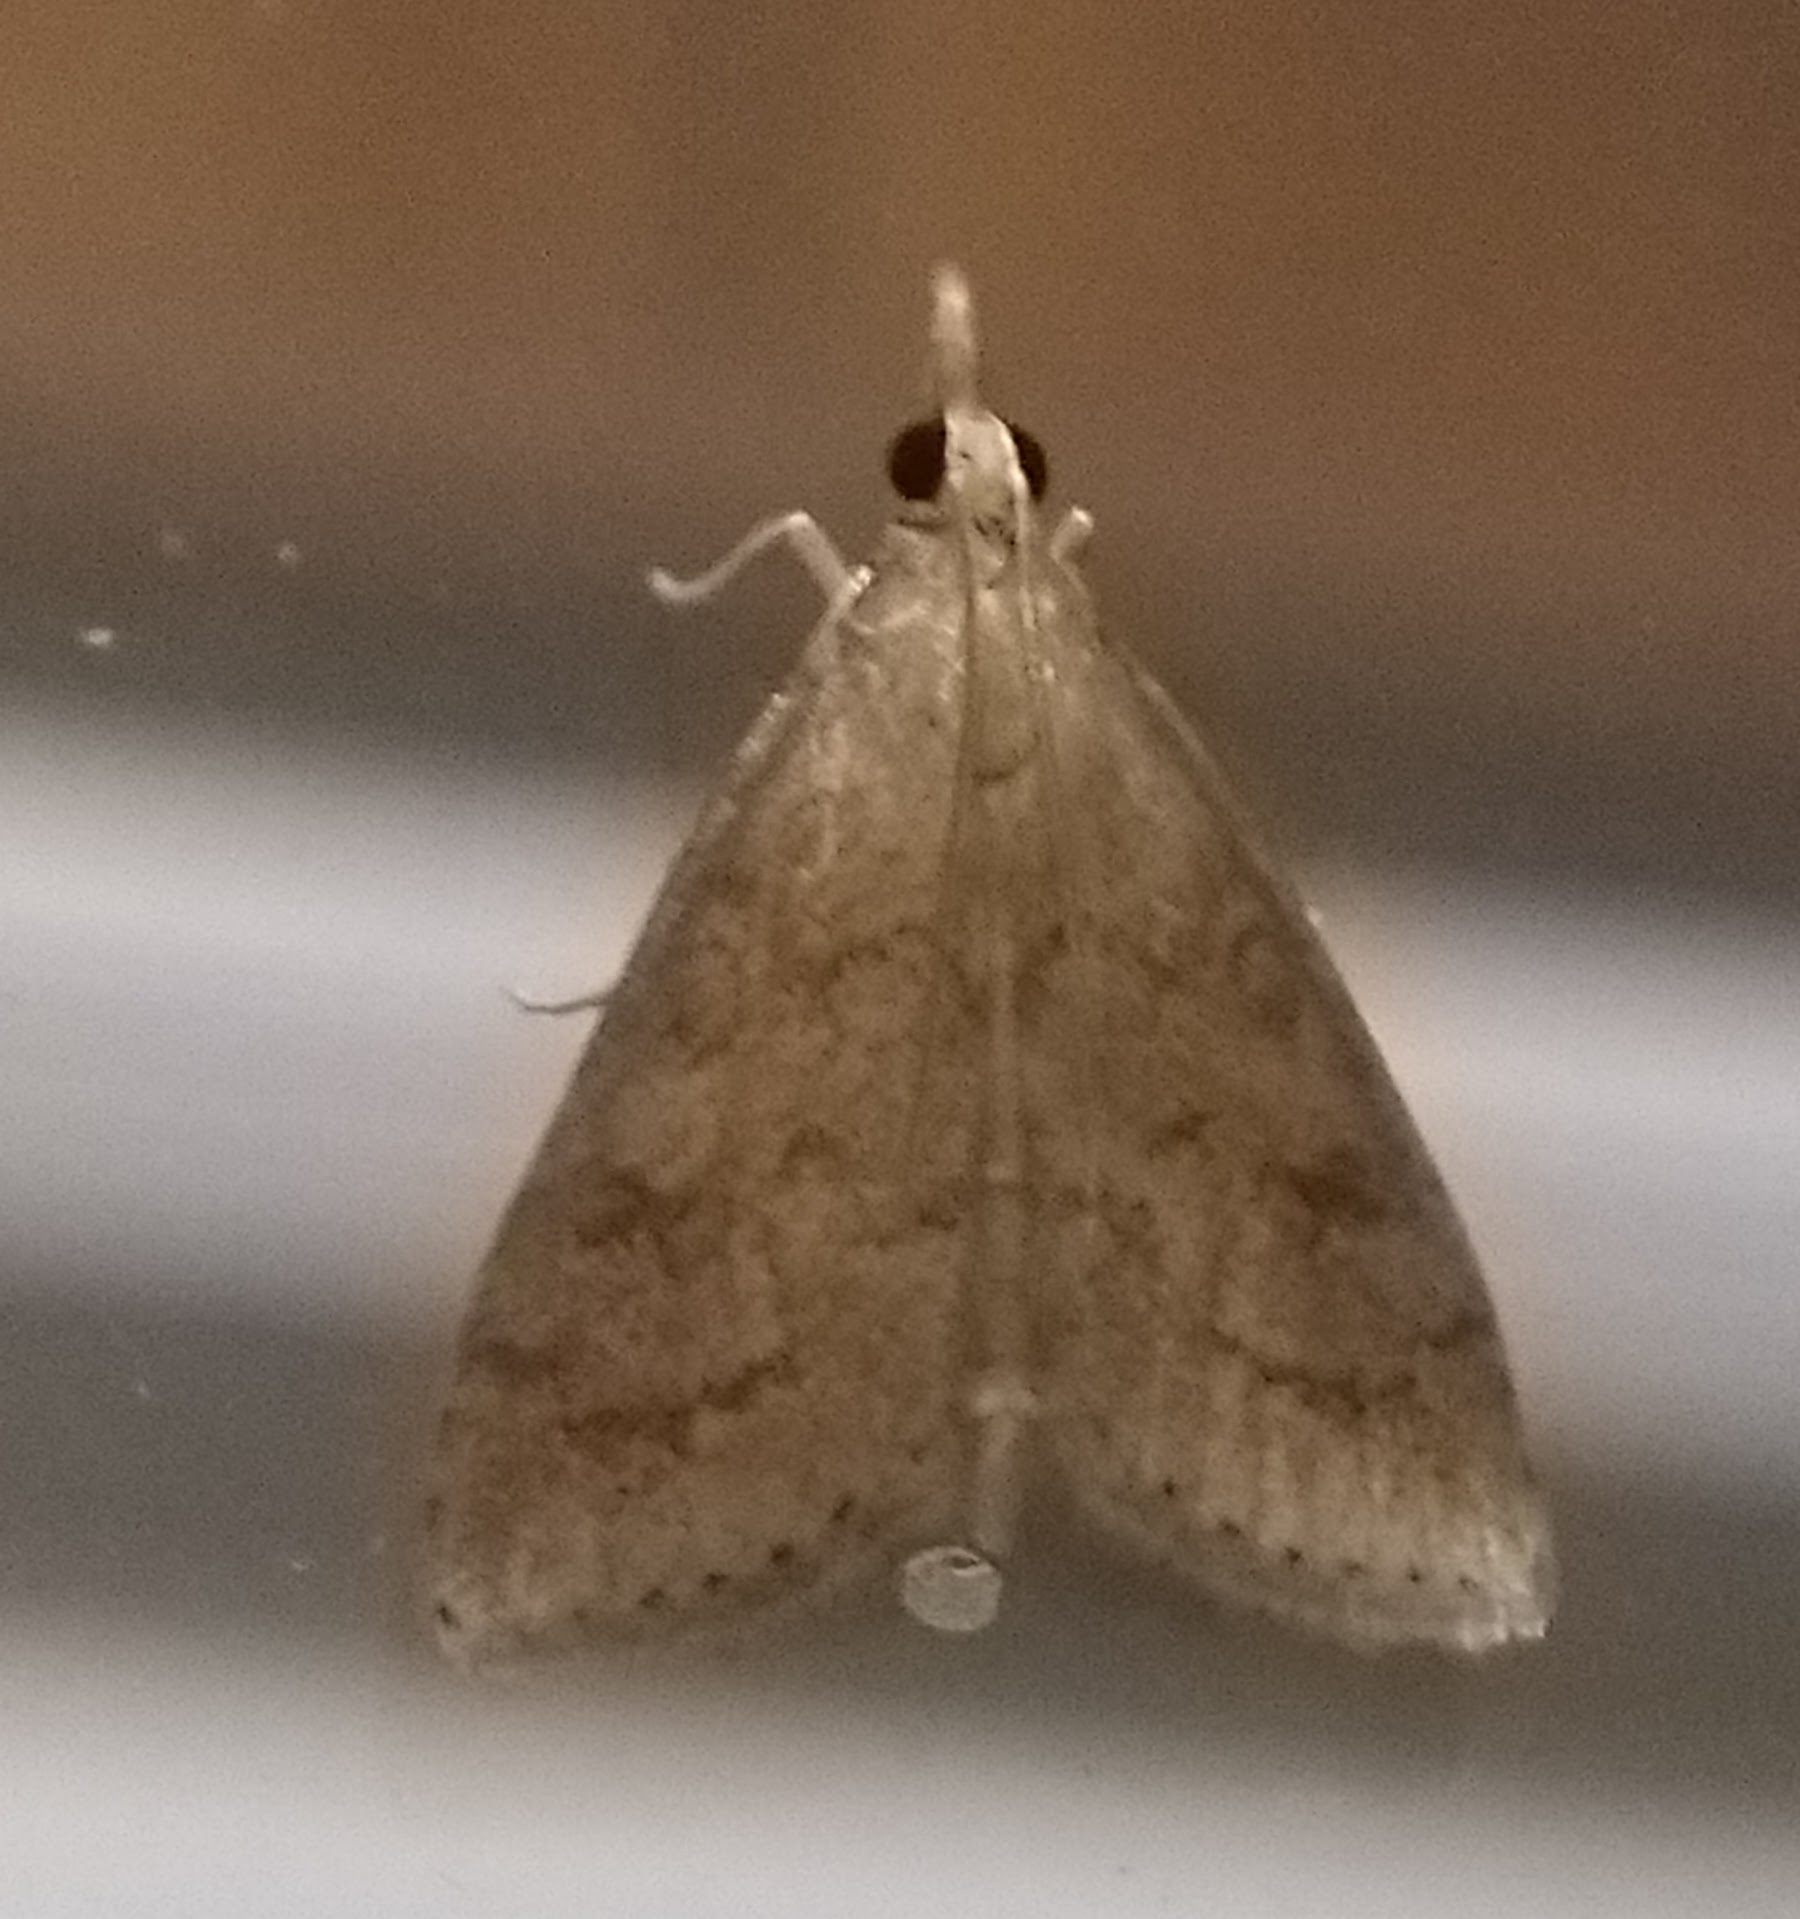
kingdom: Animalia
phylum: Arthropoda
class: Insecta
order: Lepidoptera
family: Crambidae
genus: Udea
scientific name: Udea rubigalis
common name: Celery leaftier moth
